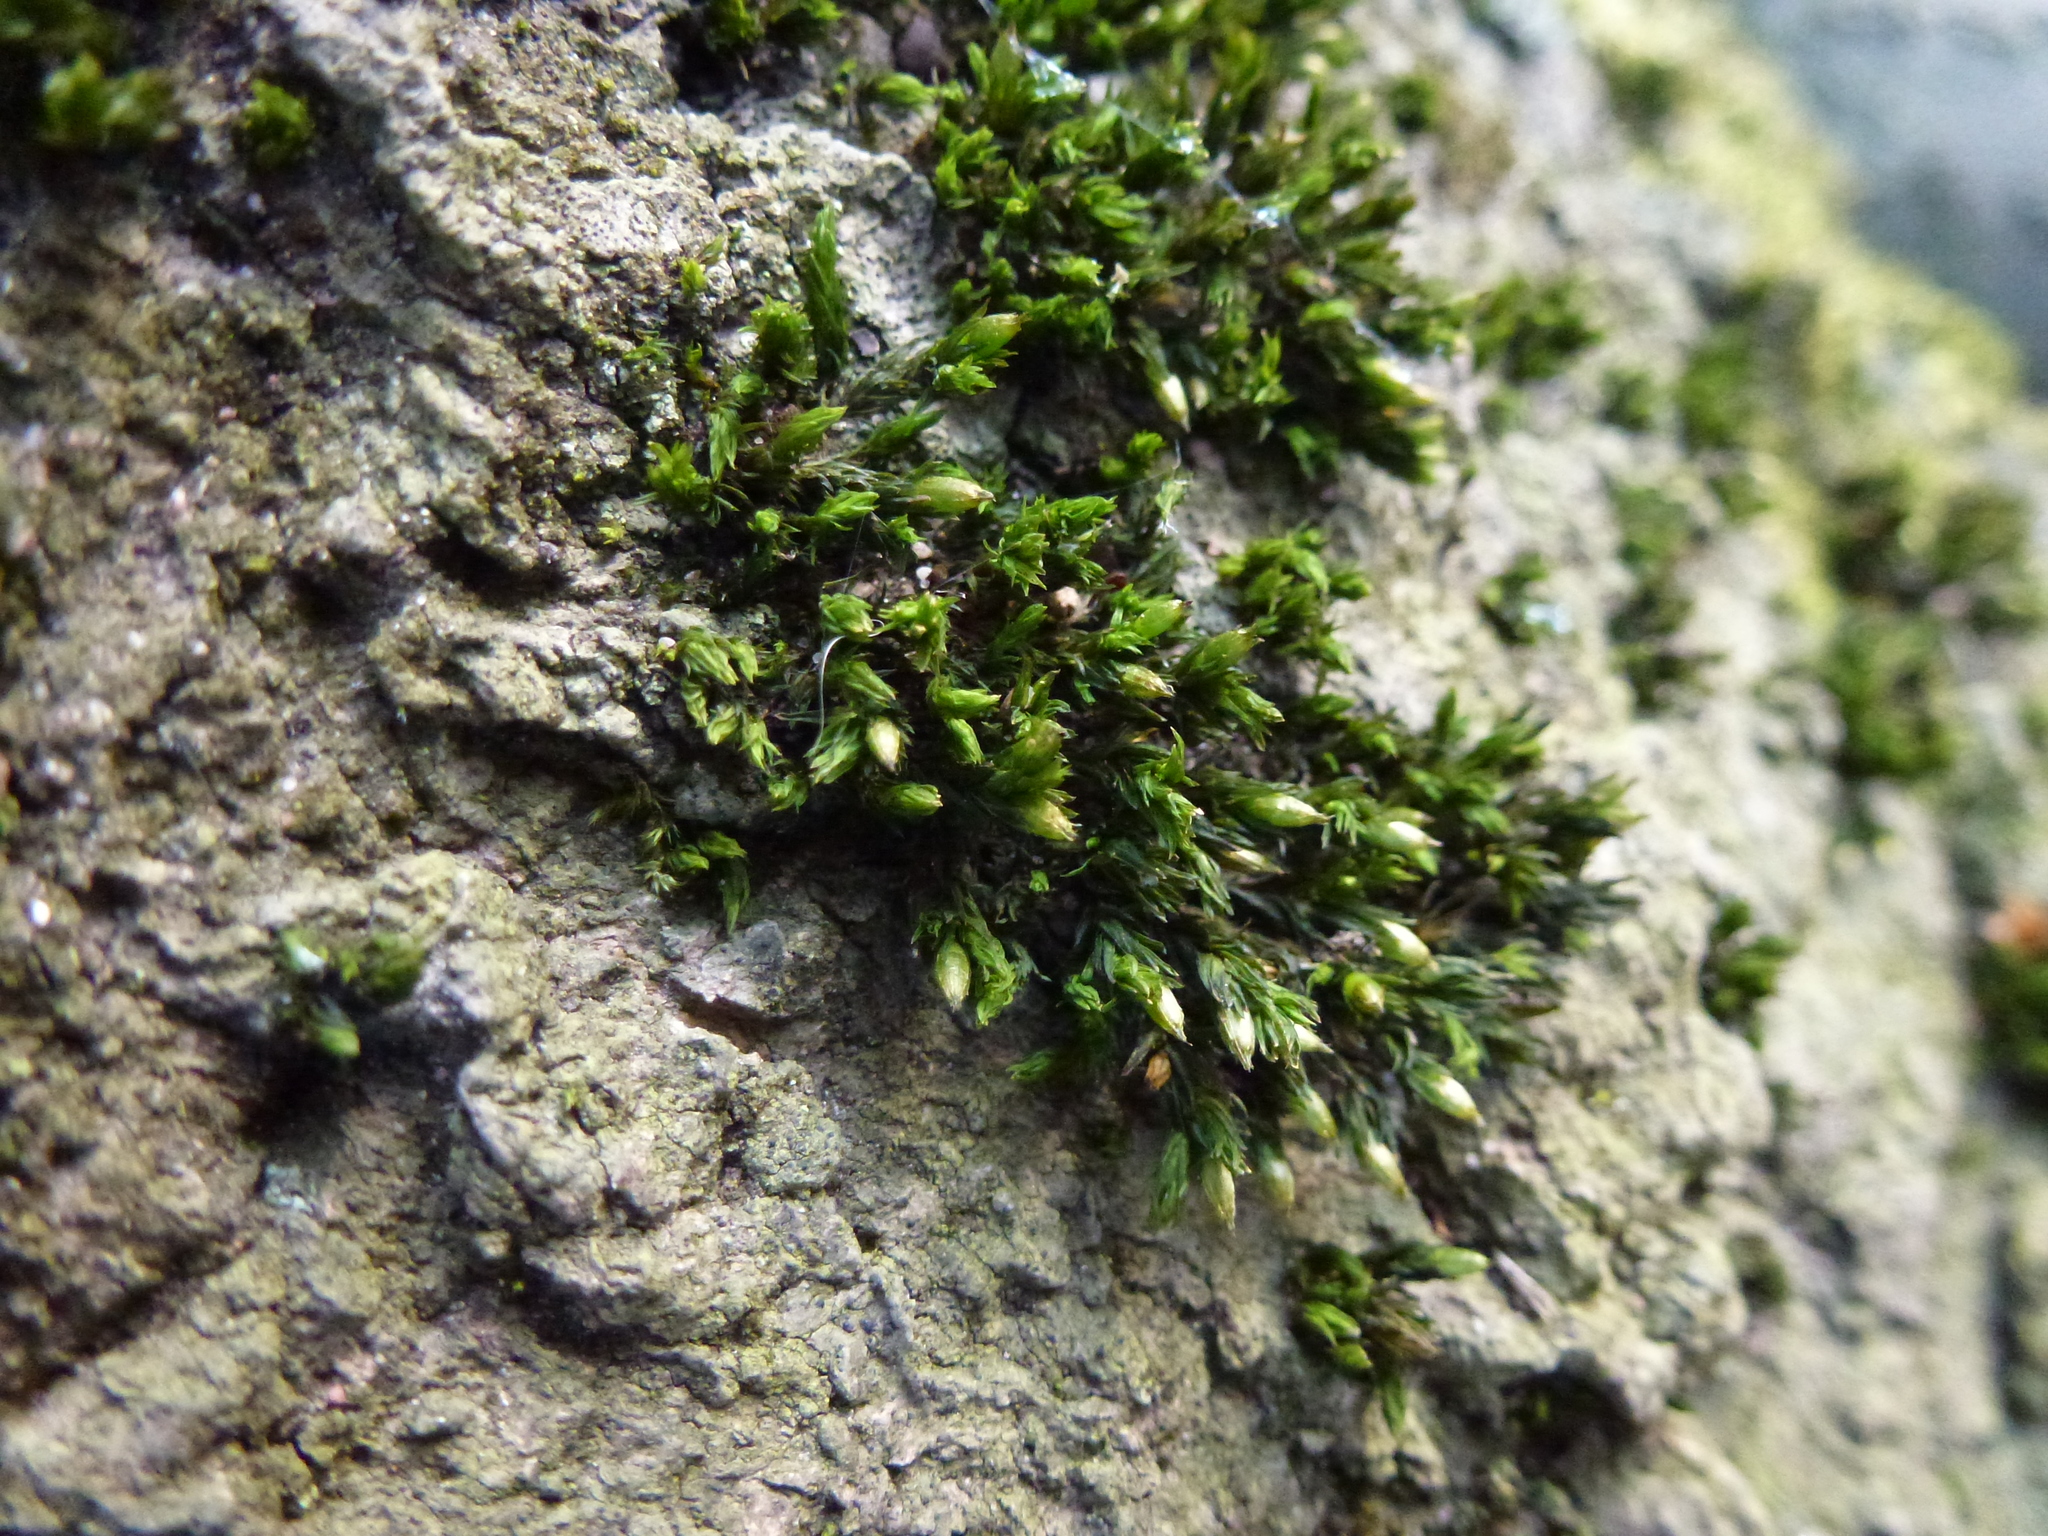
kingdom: Plantae
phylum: Bryophyta
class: Bryopsida
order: Orthotrichales
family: Orthotrichaceae
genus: Orthotrichum
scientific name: Orthotrichum stramineum
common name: Straw bristle-moss
